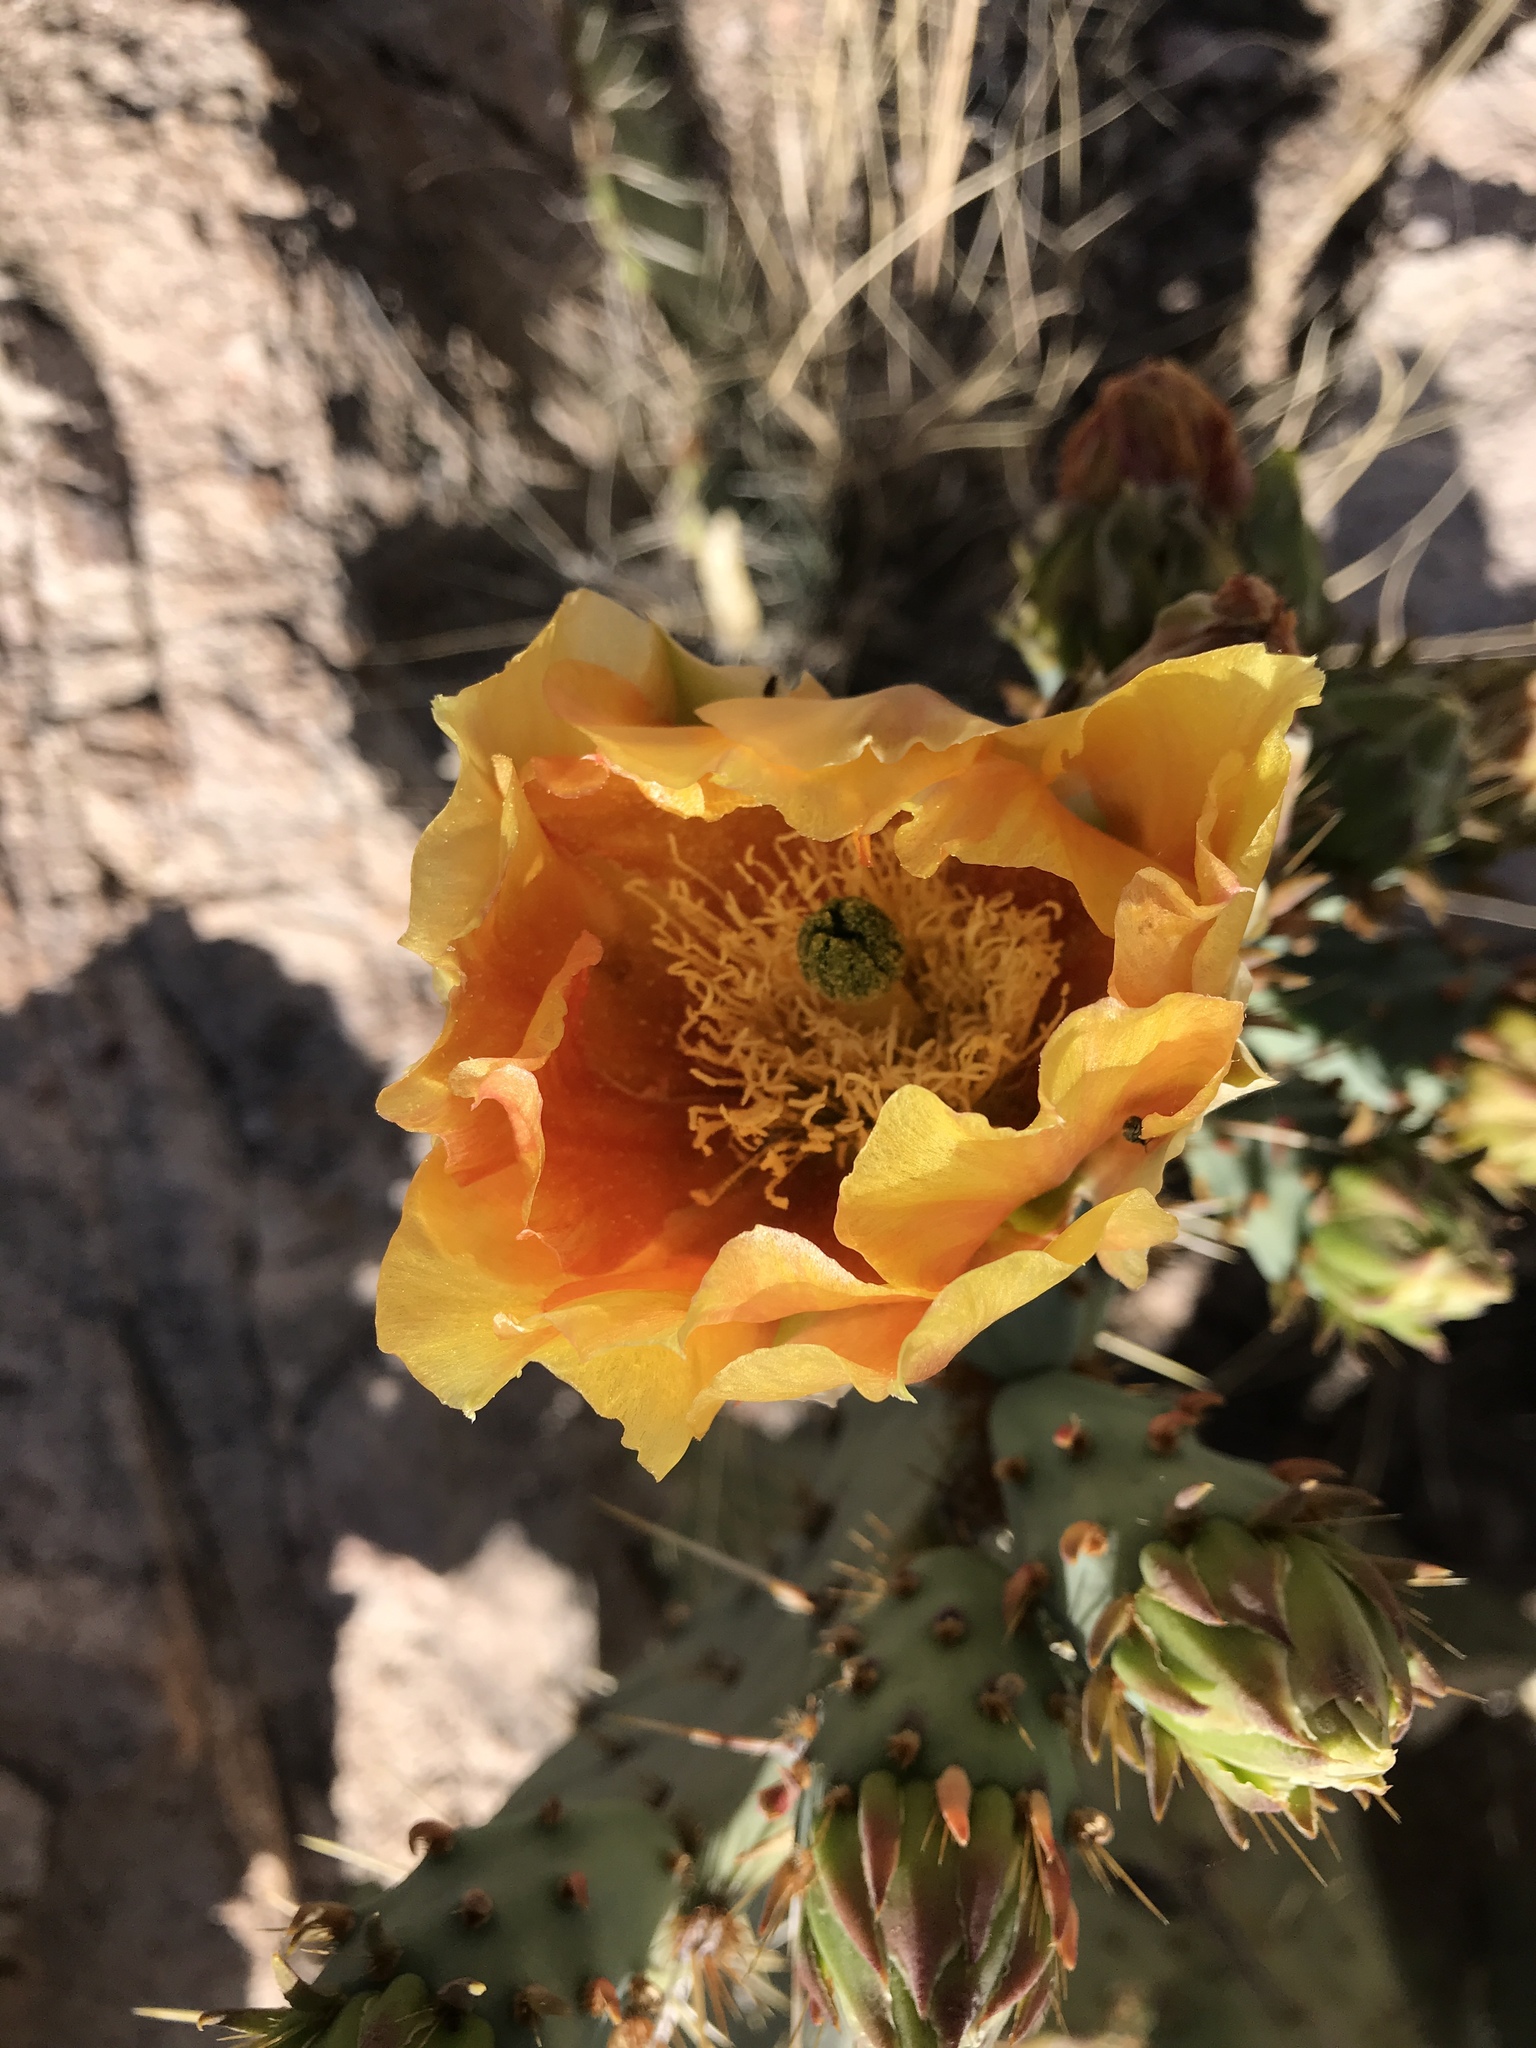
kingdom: Plantae
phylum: Tracheophyta
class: Magnoliopsida
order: Caryophyllales
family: Cactaceae
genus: Opuntia
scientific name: Opuntia engelmannii
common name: Cactus-apple
